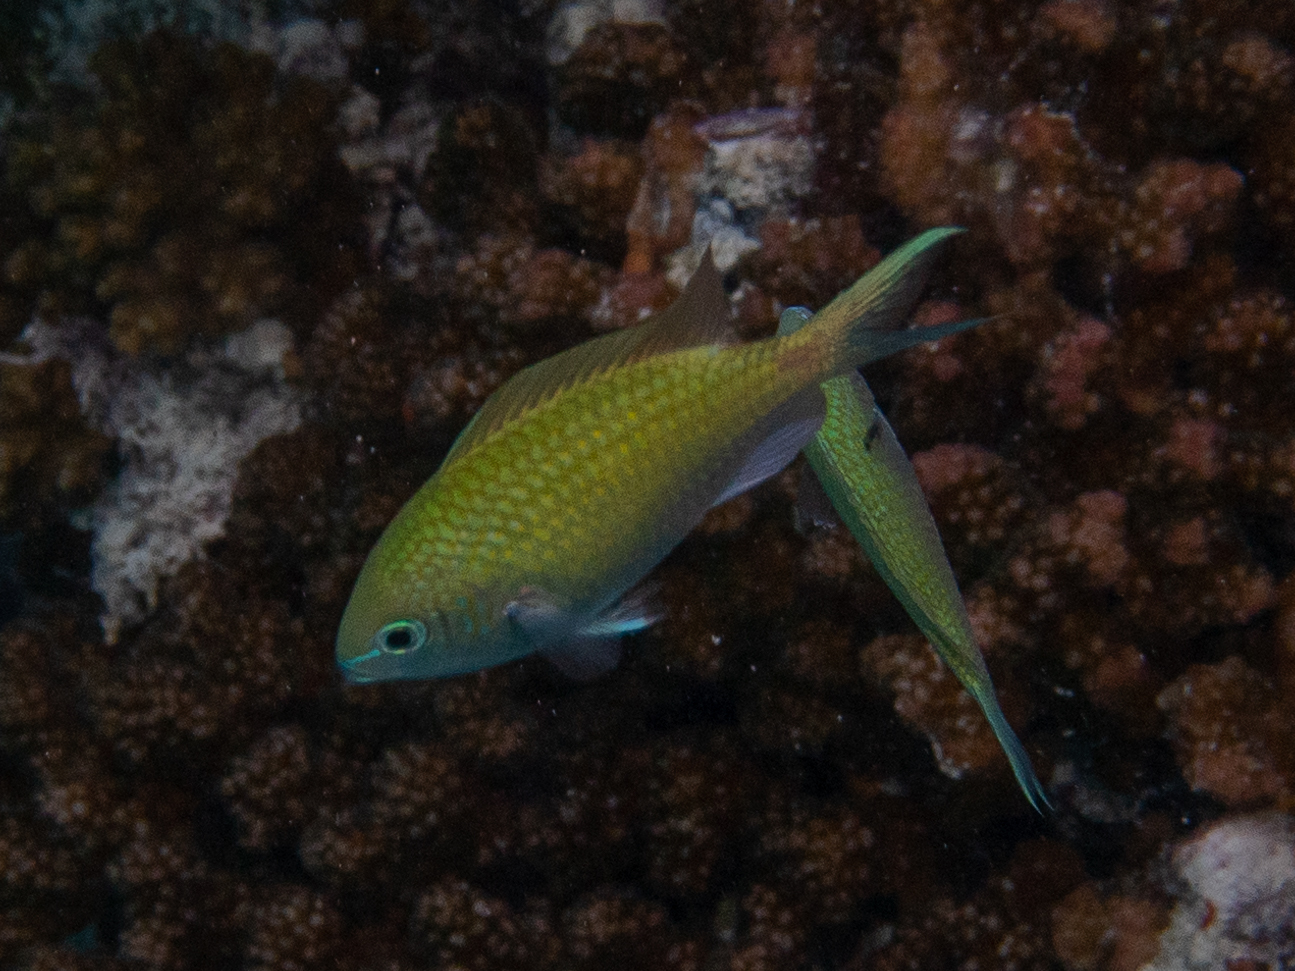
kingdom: Animalia
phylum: Chordata
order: Perciformes
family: Pomacentridae
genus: Chromis
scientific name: Chromis viridis
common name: Blue-green chromis
